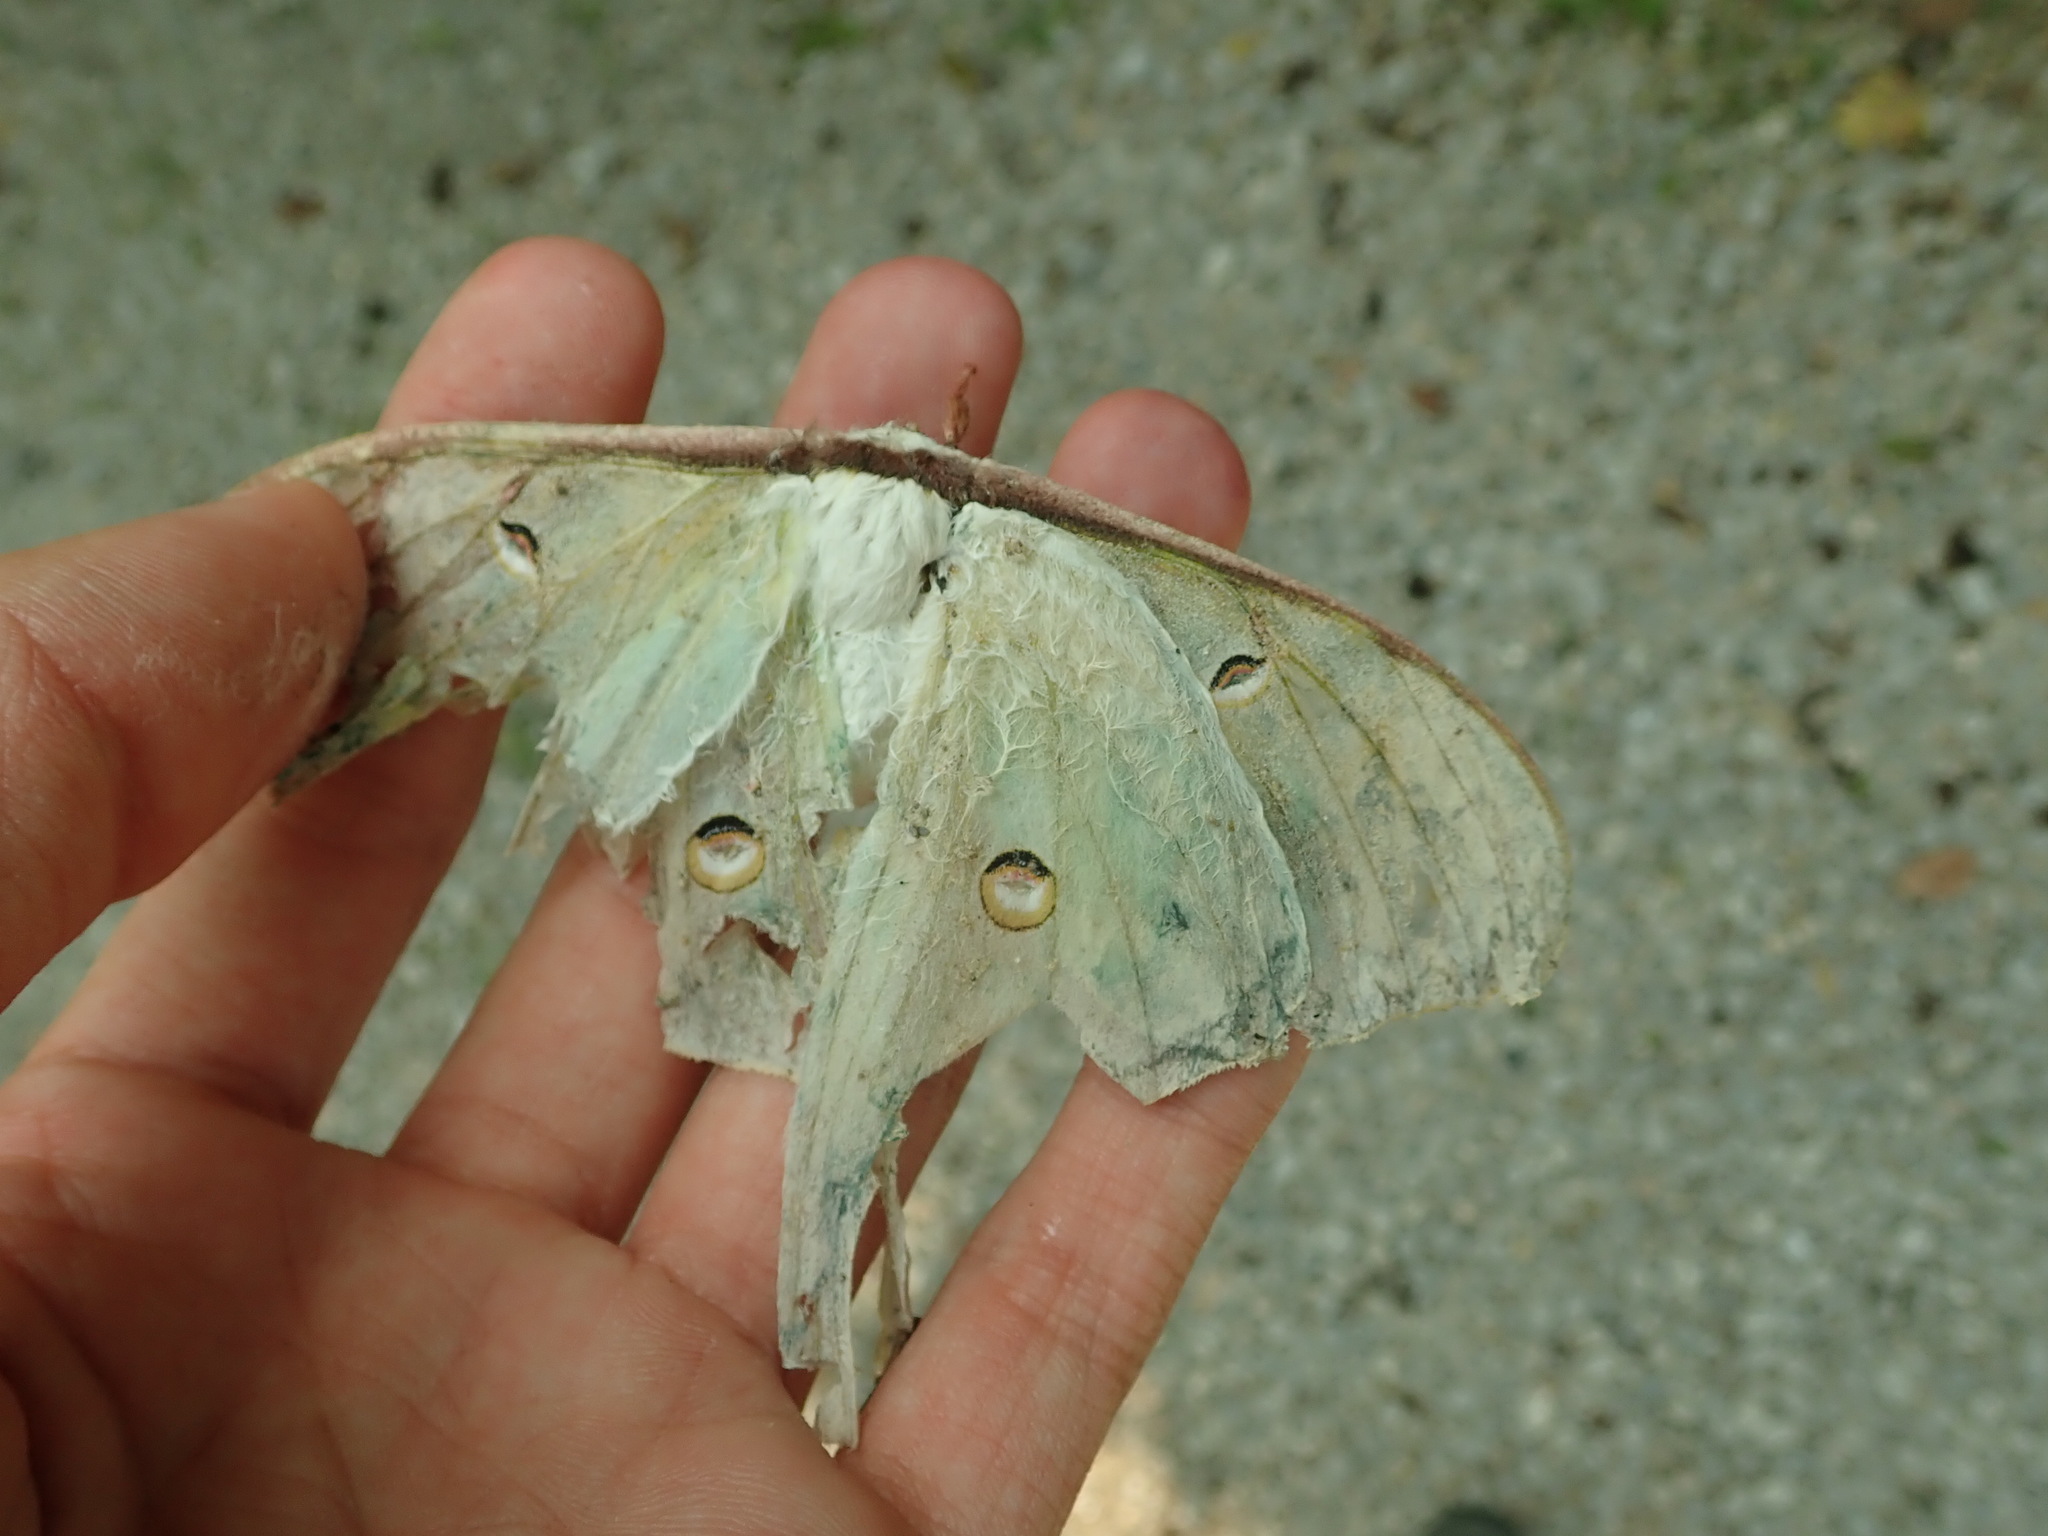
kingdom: Animalia
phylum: Arthropoda
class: Insecta
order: Lepidoptera
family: Saturniidae
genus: Actias
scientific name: Actias luna
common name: Luna moth
